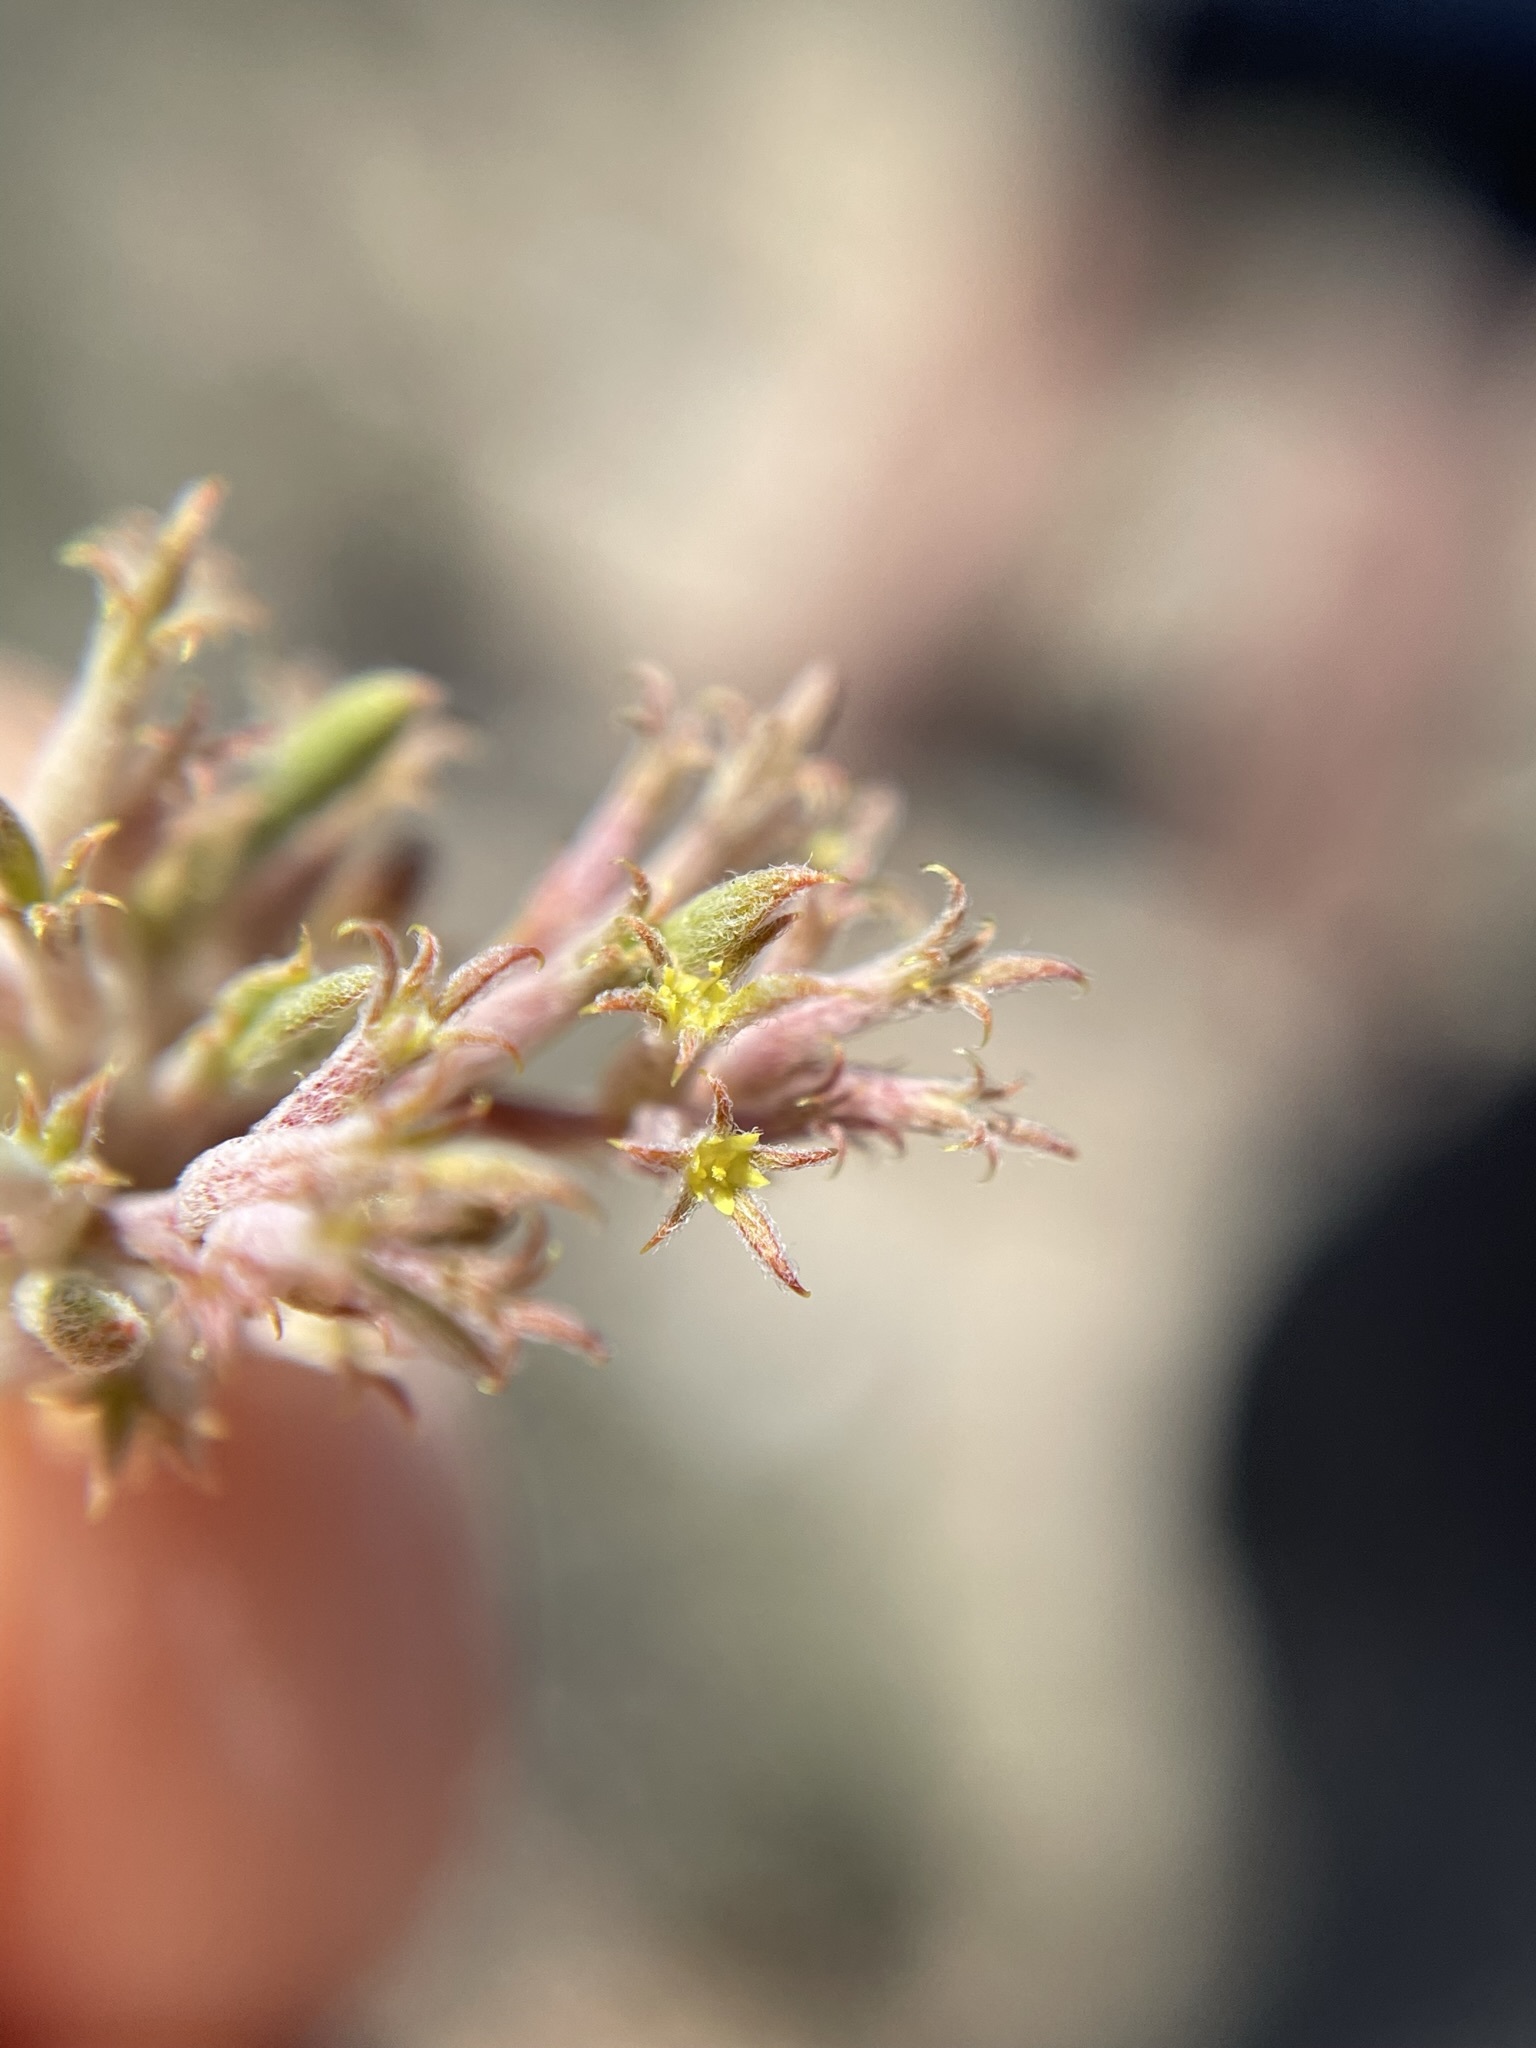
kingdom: Plantae
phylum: Tracheophyta
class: Magnoliopsida
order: Caryophyllales
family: Polygonaceae
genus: Chorizanthe
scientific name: Chorizanthe watsonii
